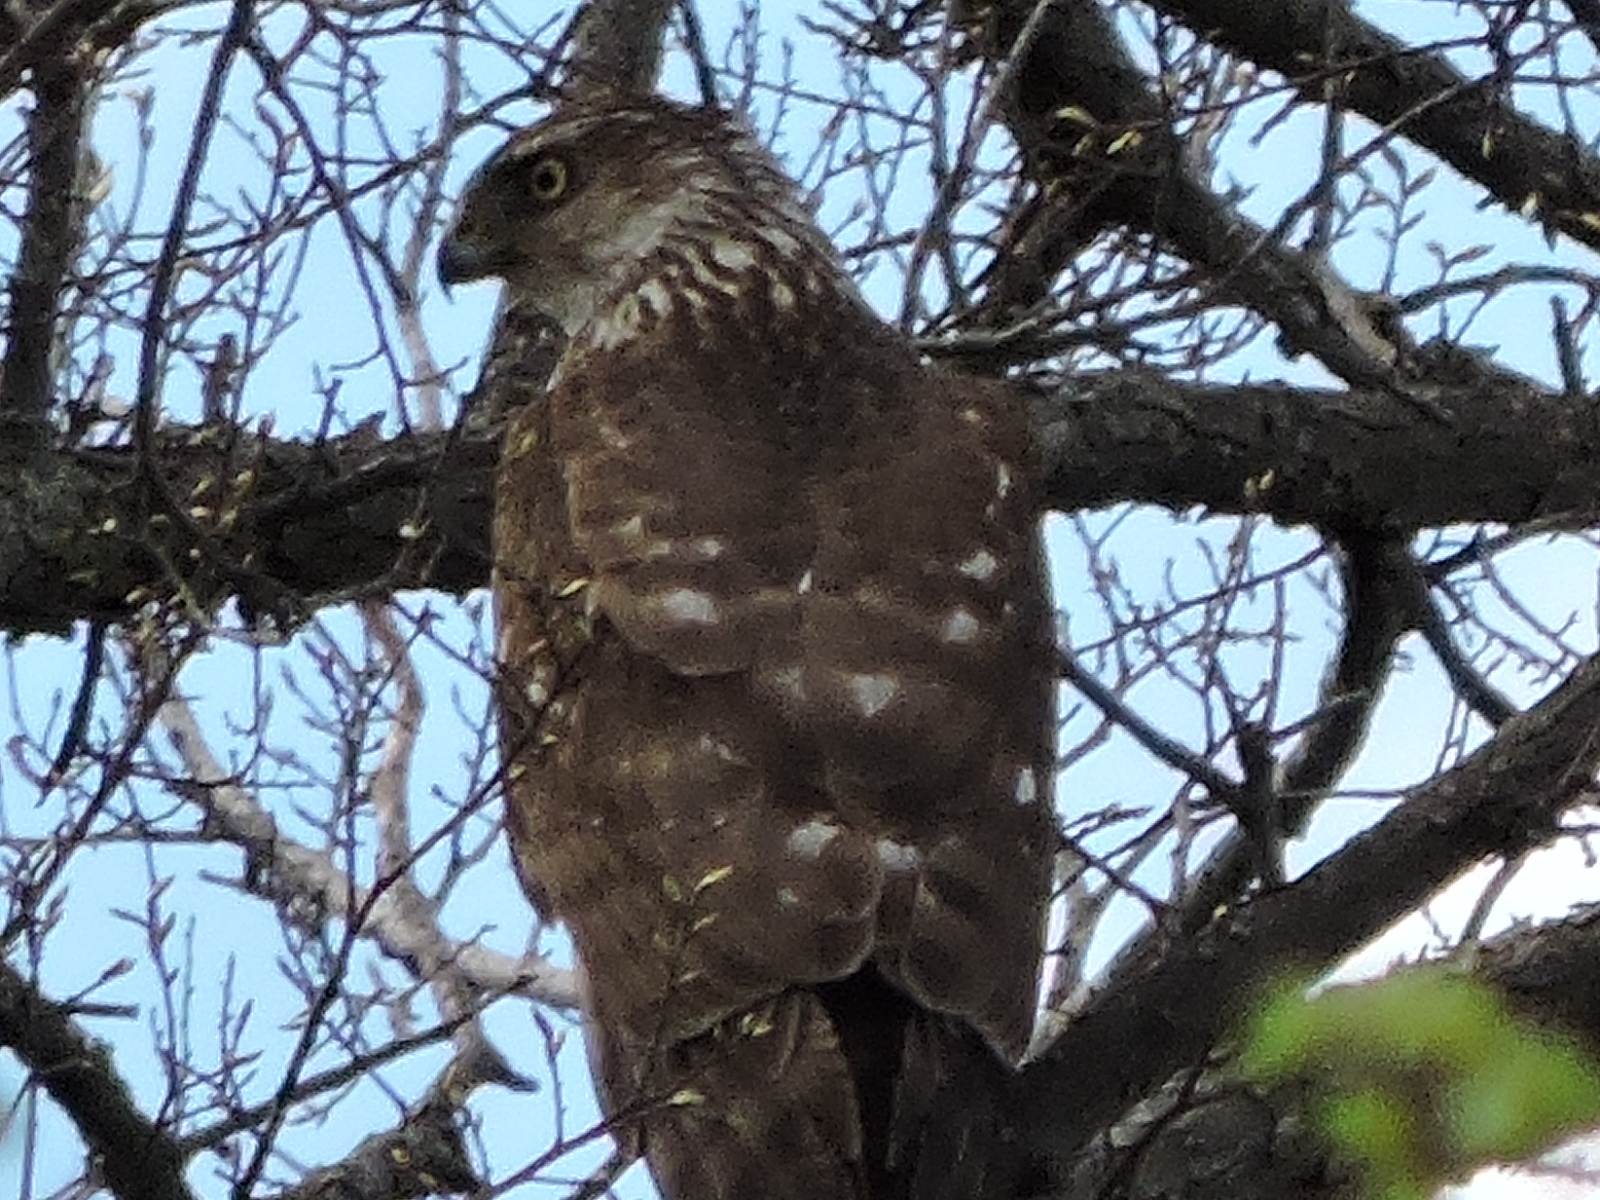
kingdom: Animalia
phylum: Chordata
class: Aves
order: Accipitriformes
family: Accipitridae
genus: Accipiter
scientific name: Accipiter cooperii
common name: Cooper's hawk
